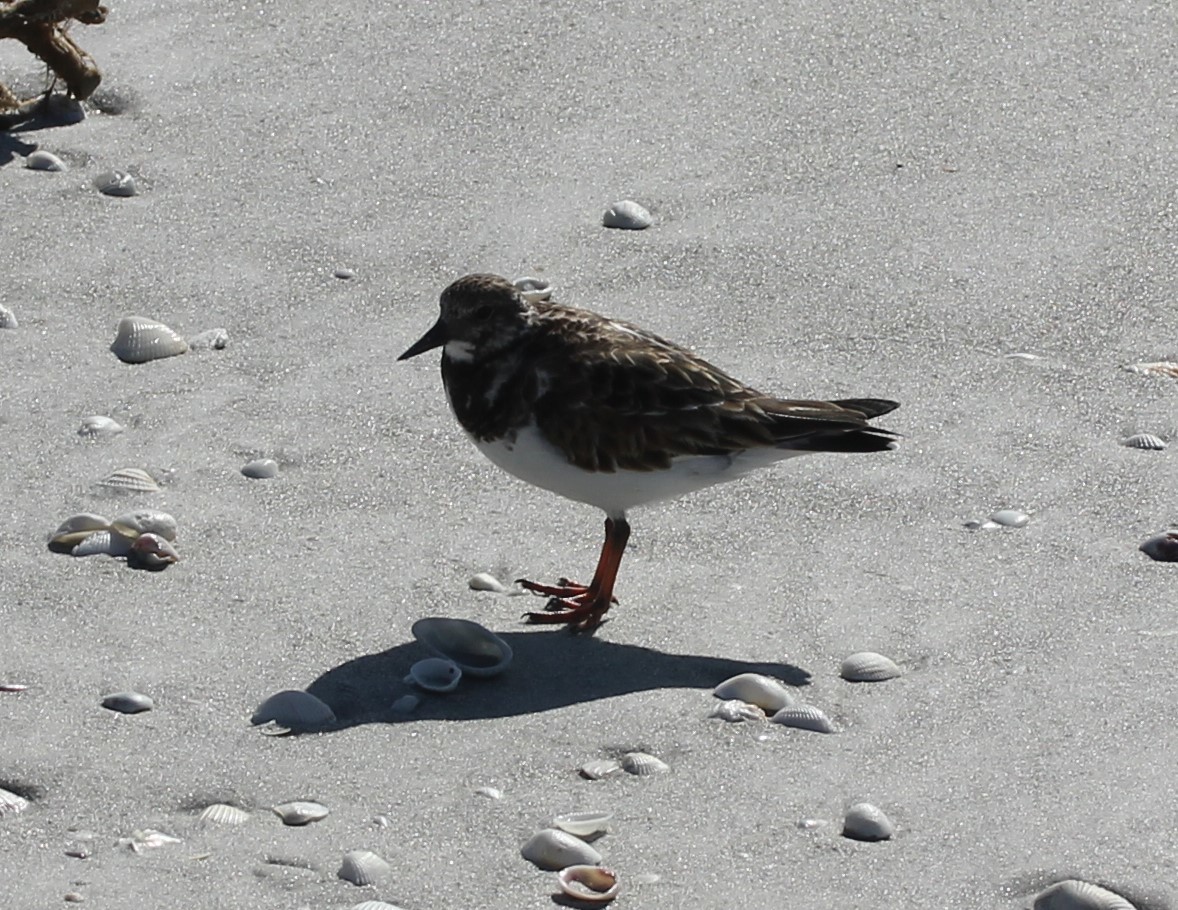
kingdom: Animalia
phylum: Chordata
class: Aves
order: Charadriiformes
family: Scolopacidae
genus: Arenaria
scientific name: Arenaria interpres
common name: Ruddy turnstone
